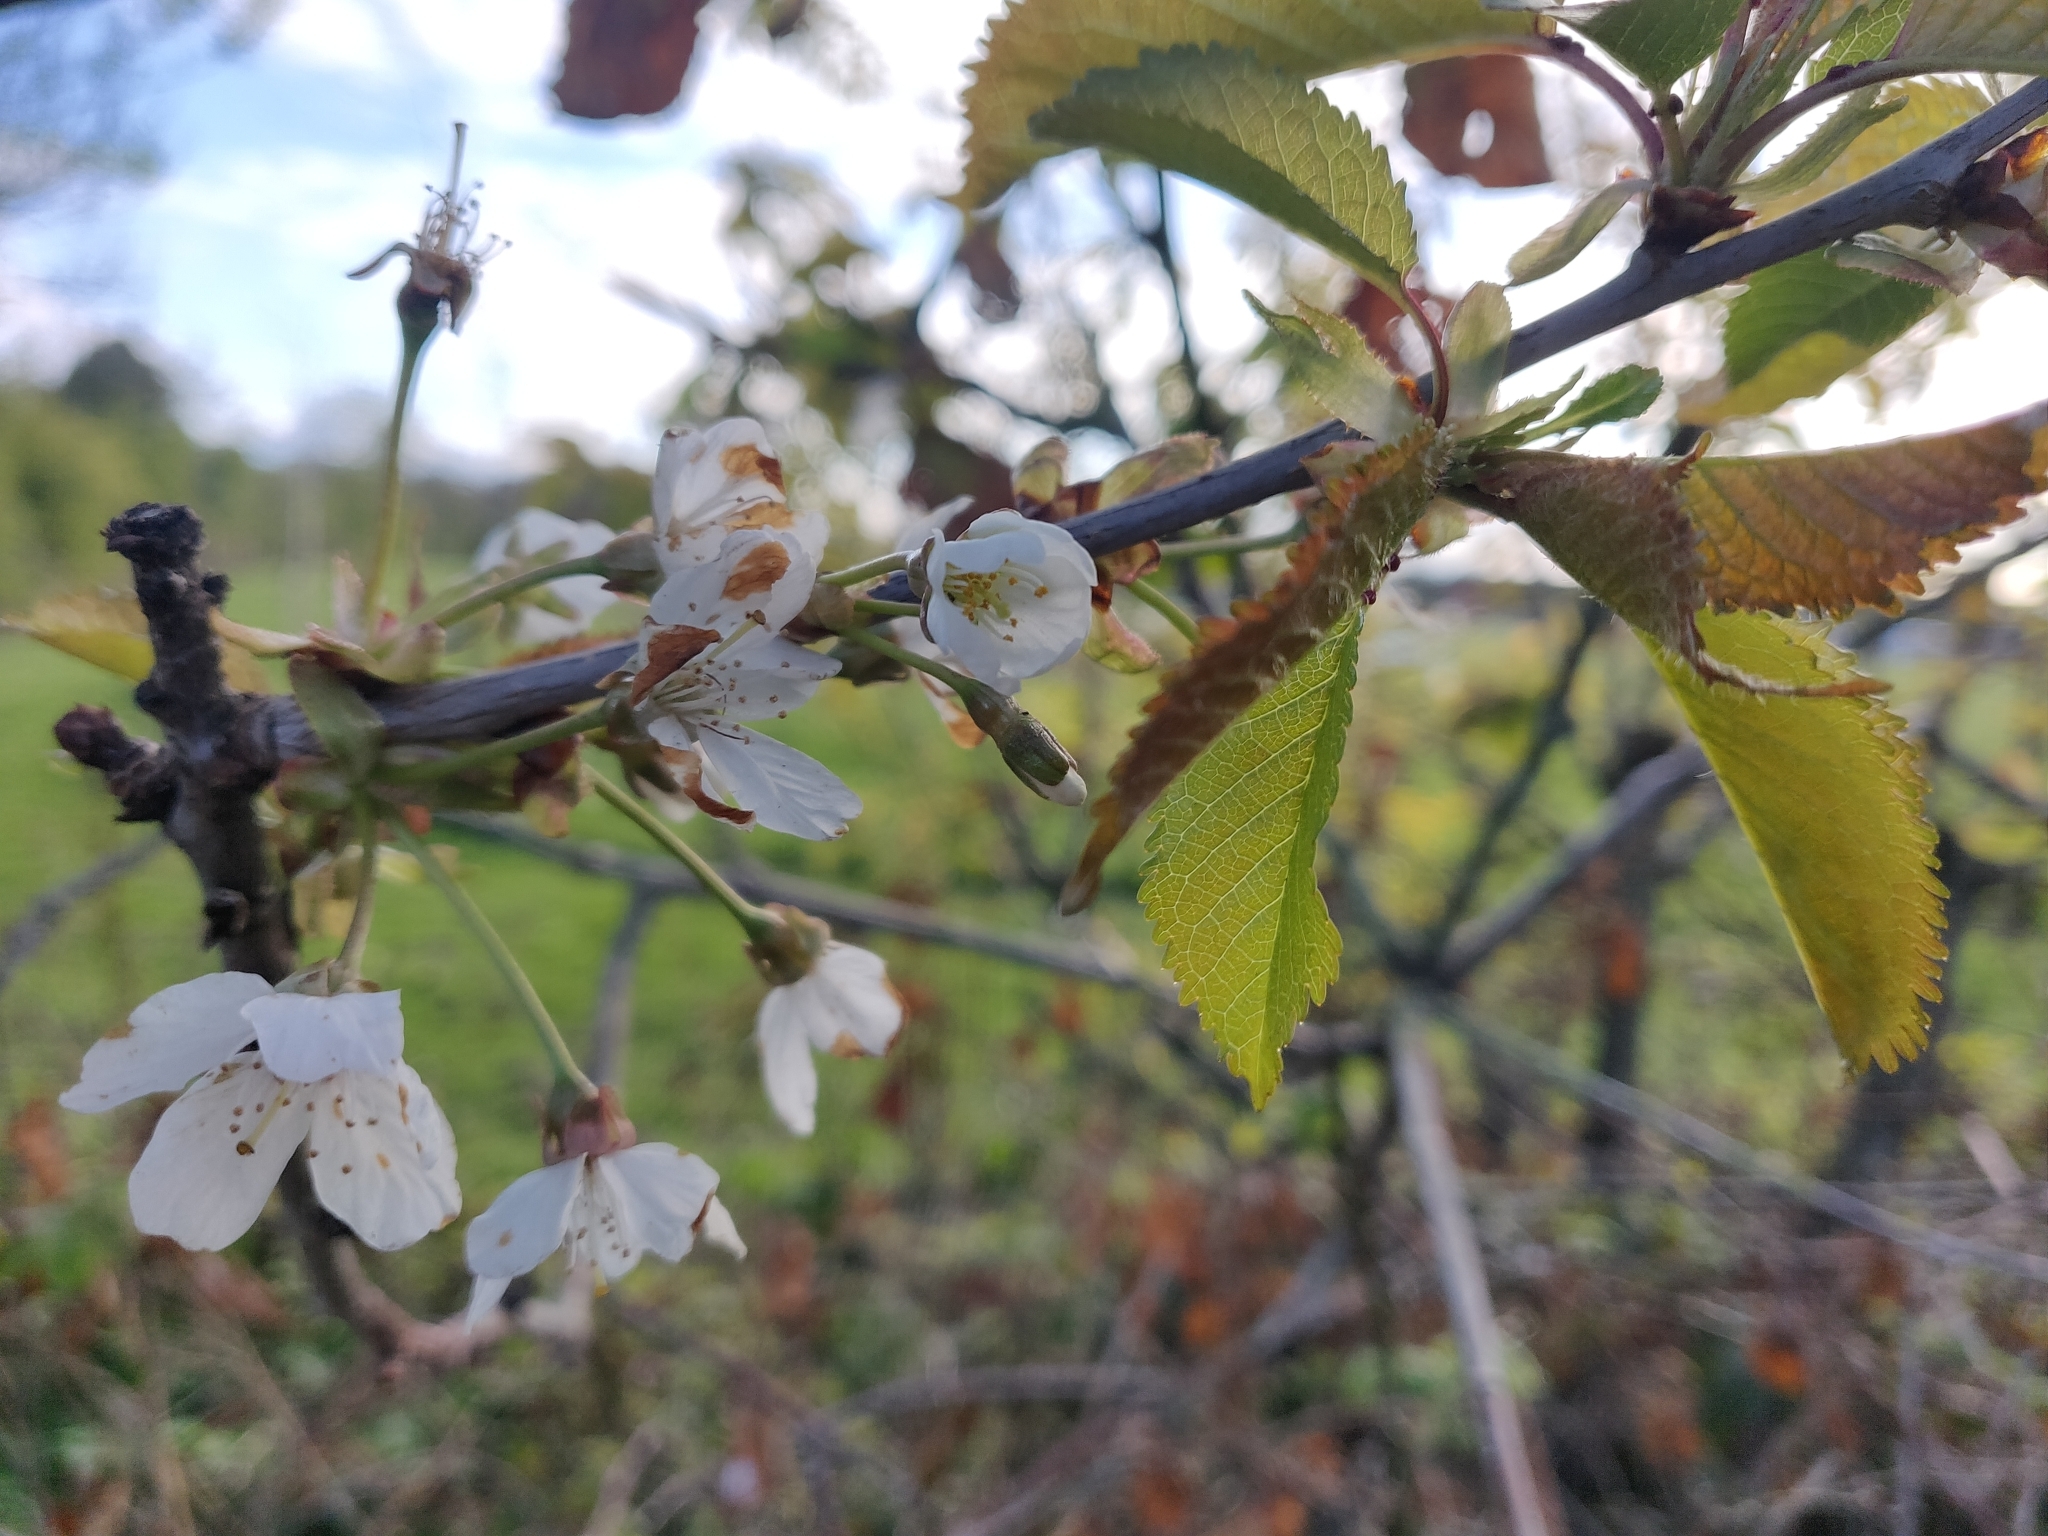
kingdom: Plantae
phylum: Tracheophyta
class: Magnoliopsida
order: Rosales
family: Rosaceae
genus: Prunus
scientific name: Prunus avium
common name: Sweet cherry
